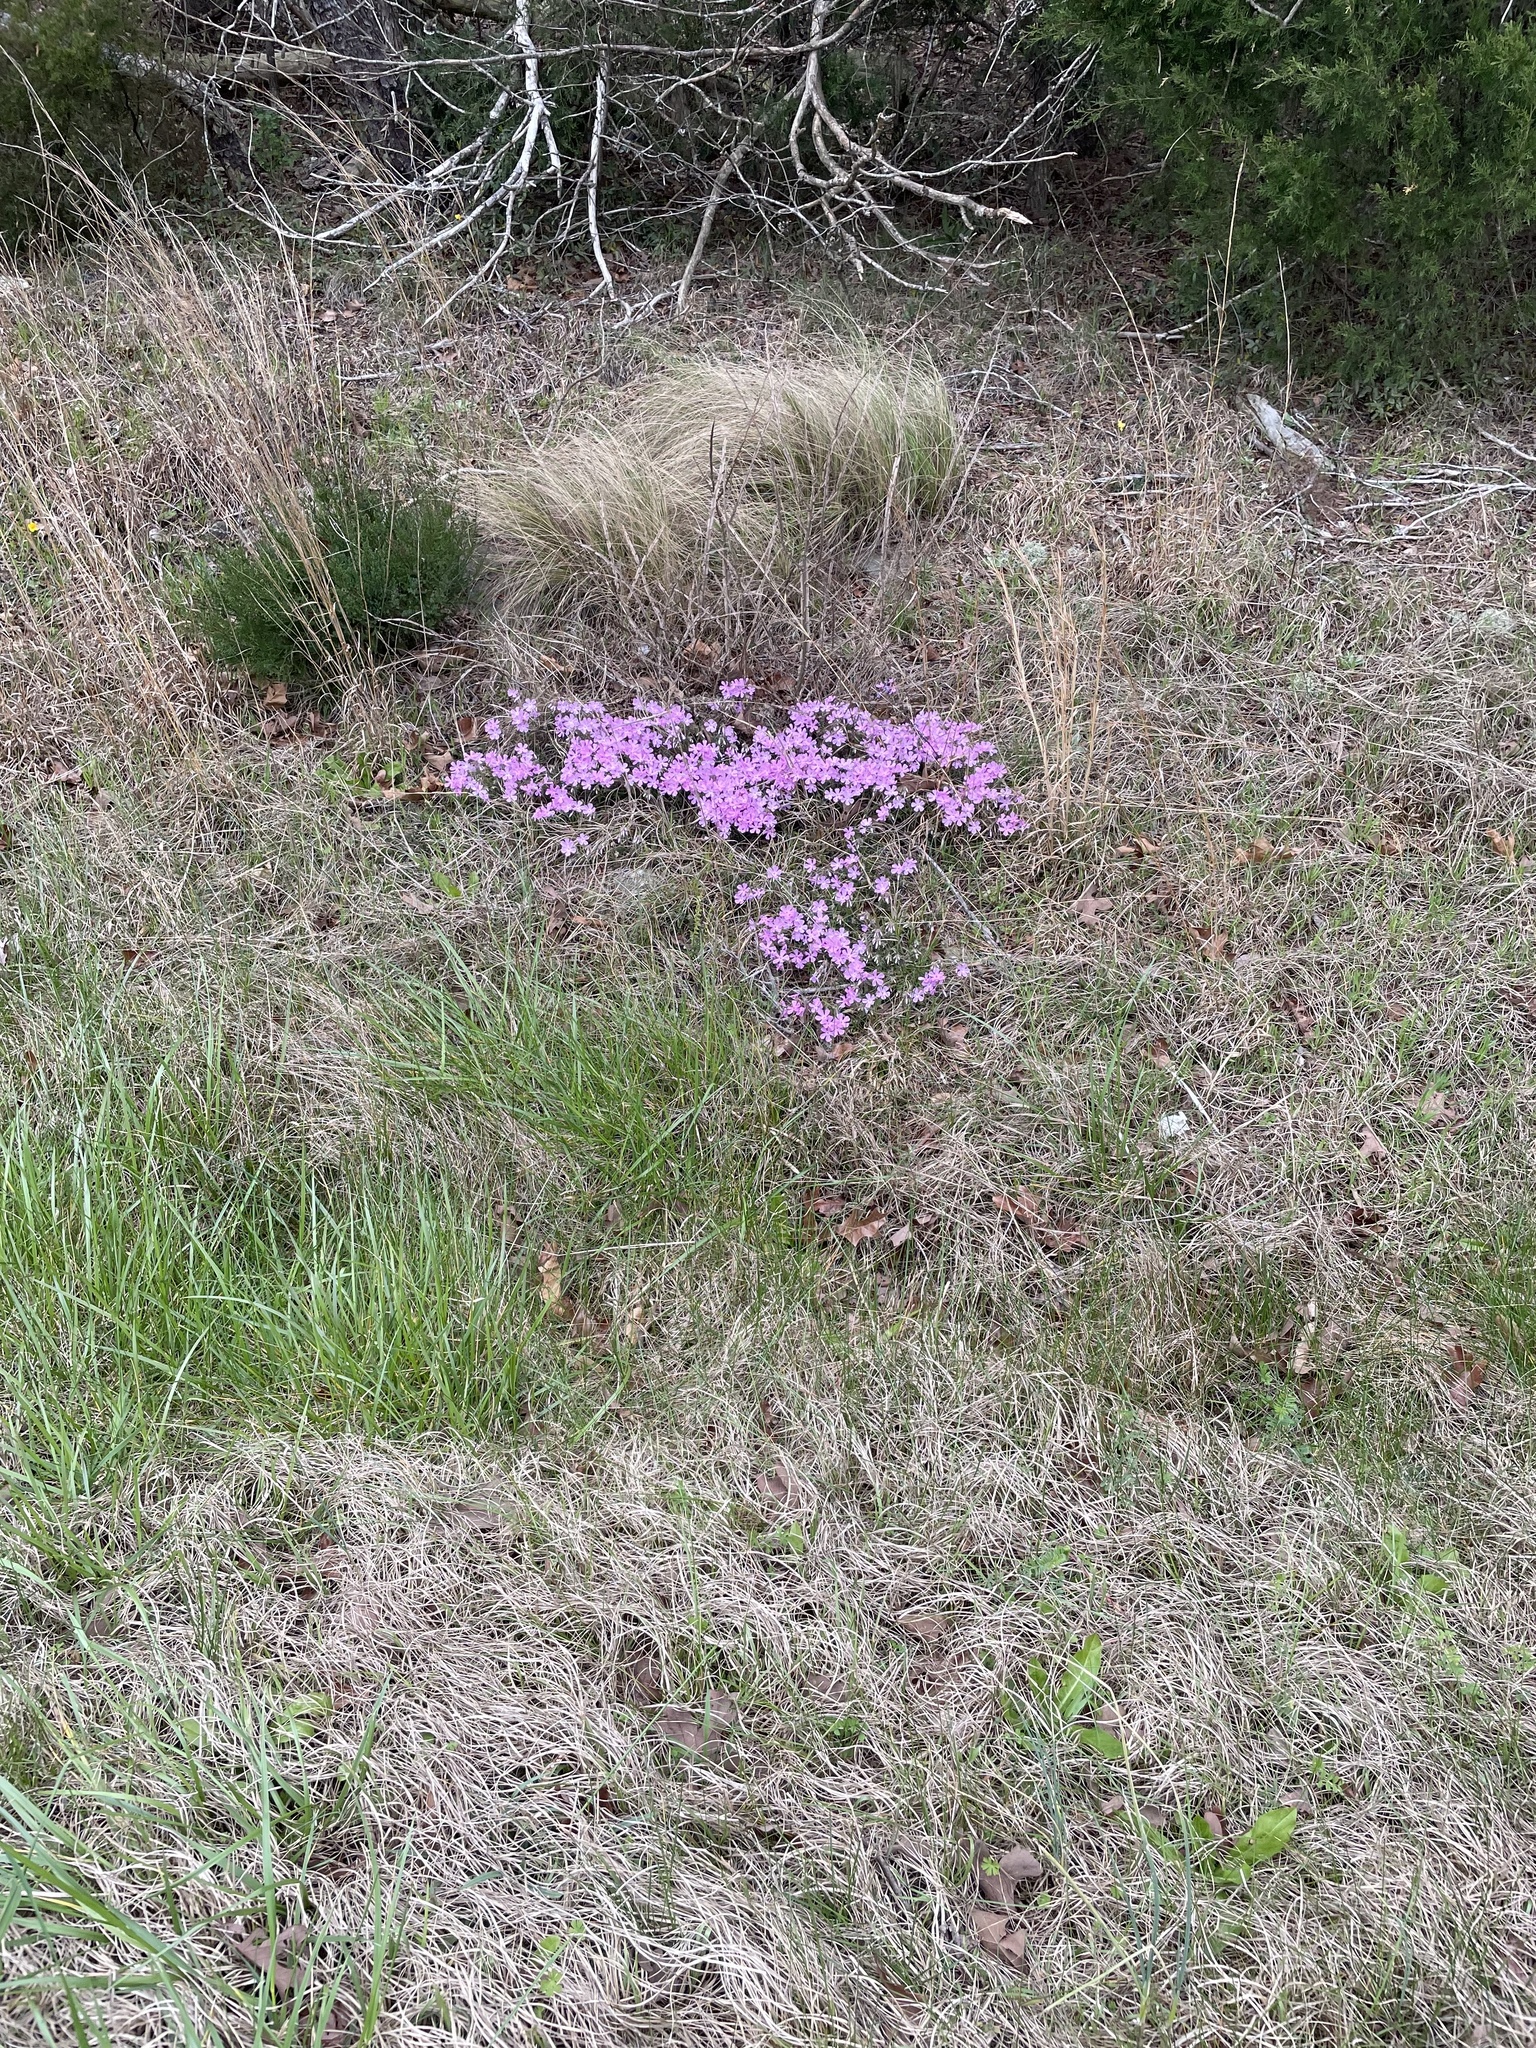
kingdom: Plantae
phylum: Tracheophyta
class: Magnoliopsida
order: Ericales
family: Polemoniaceae
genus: Phlox
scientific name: Phlox nivalis
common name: Trailing phlox
